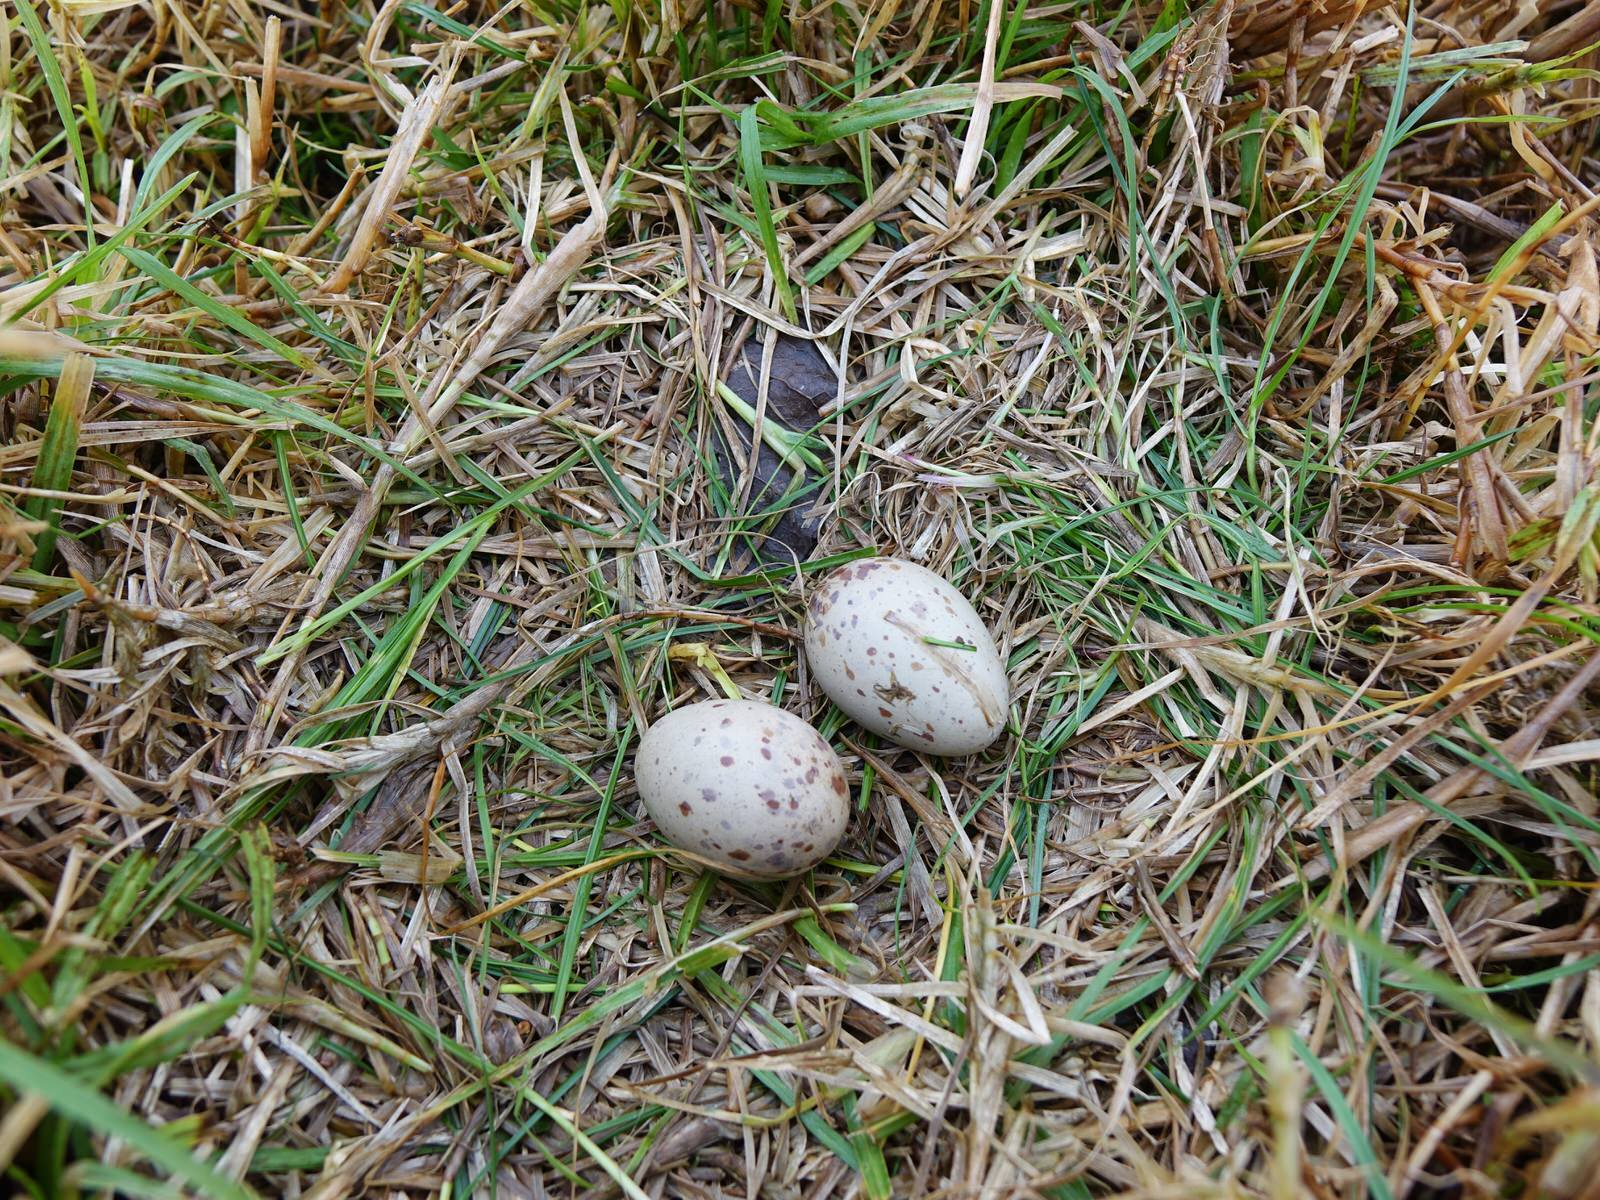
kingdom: Animalia
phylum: Chordata
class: Aves
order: Gruiformes
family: Rallidae
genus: Porphyrio
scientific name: Porphyrio melanotus
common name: Australasian swamphen
